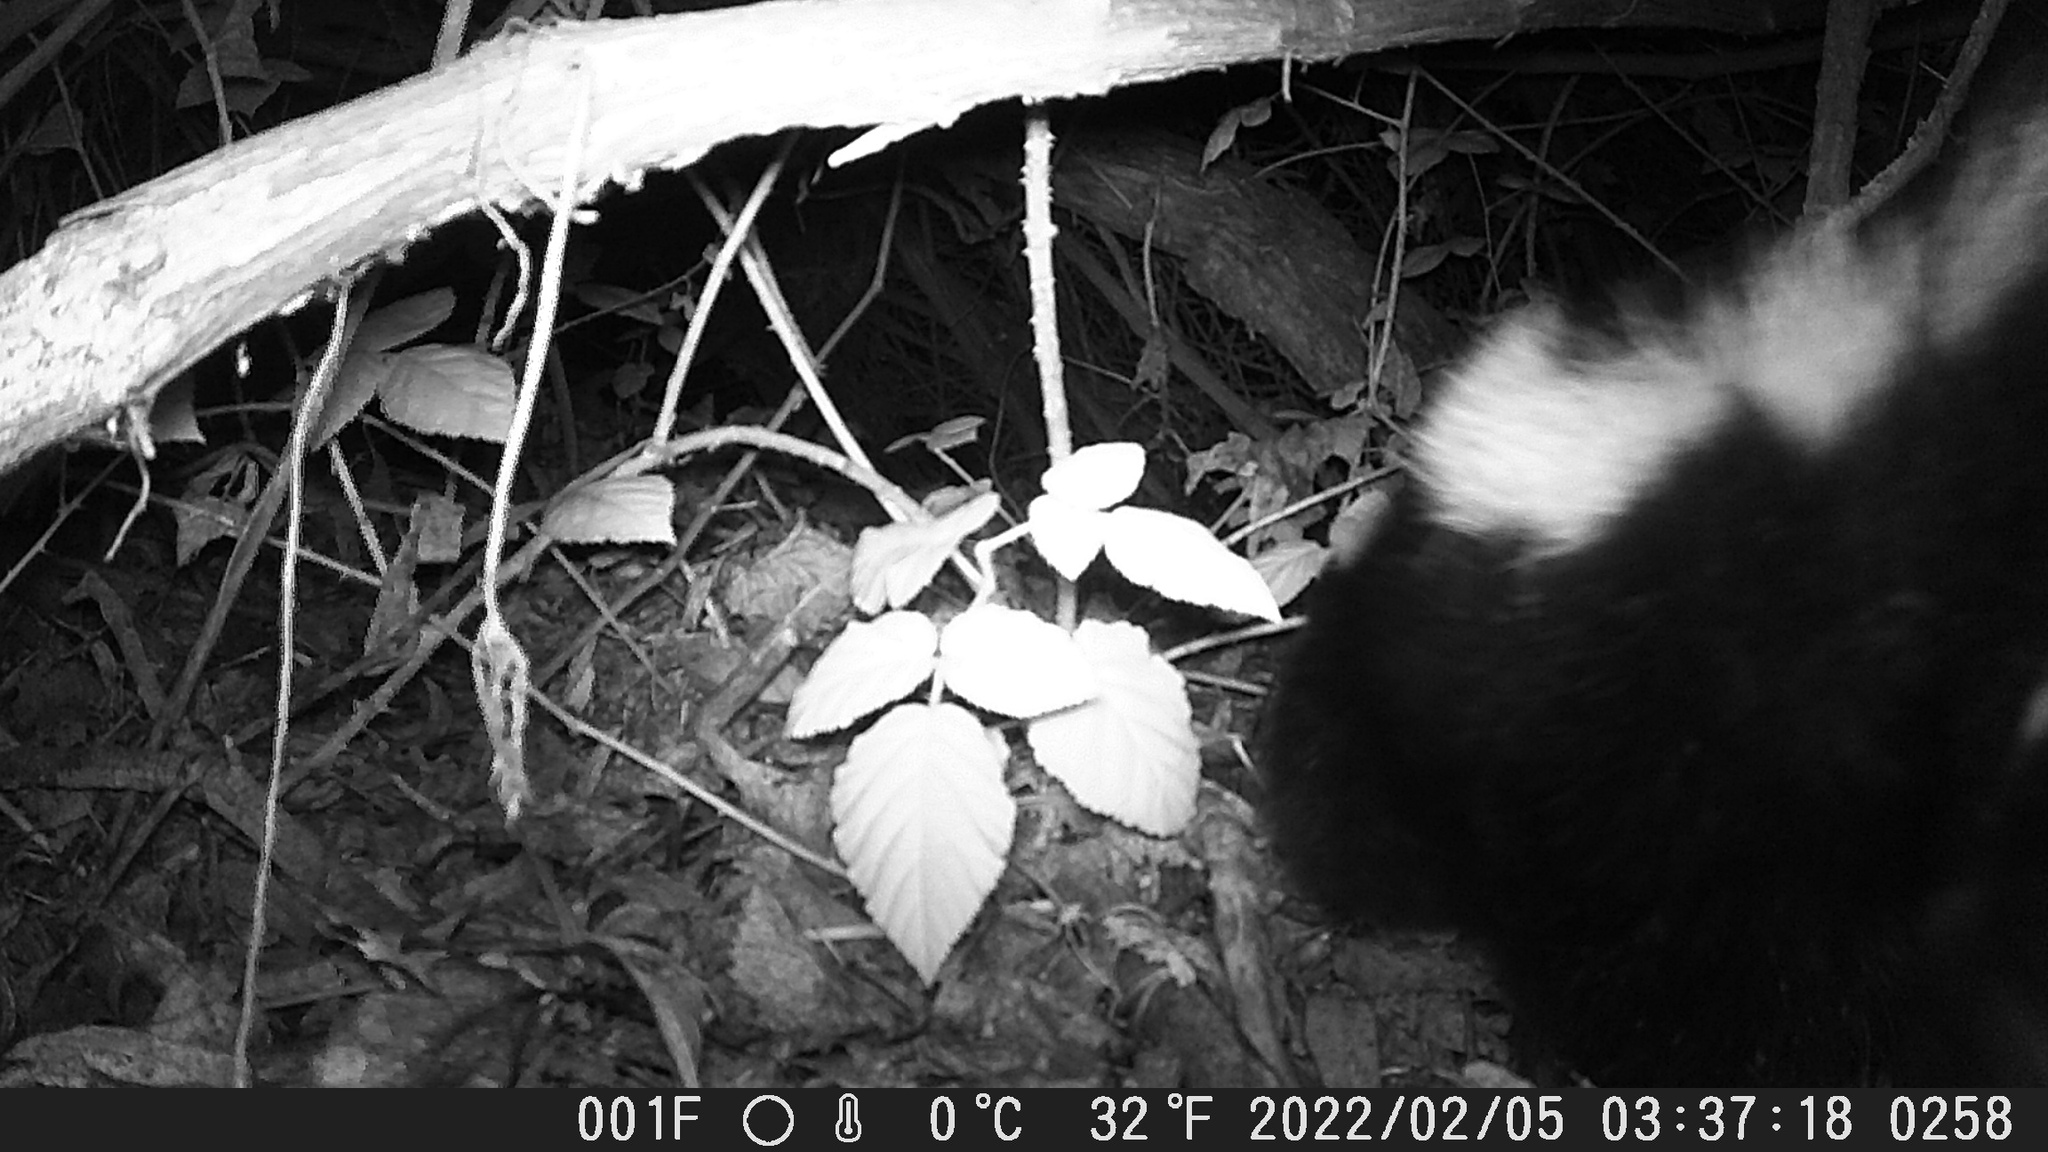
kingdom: Animalia
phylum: Chordata
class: Mammalia
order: Carnivora
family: Mephitidae
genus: Mephitis
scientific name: Mephitis mephitis
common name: Striped skunk
